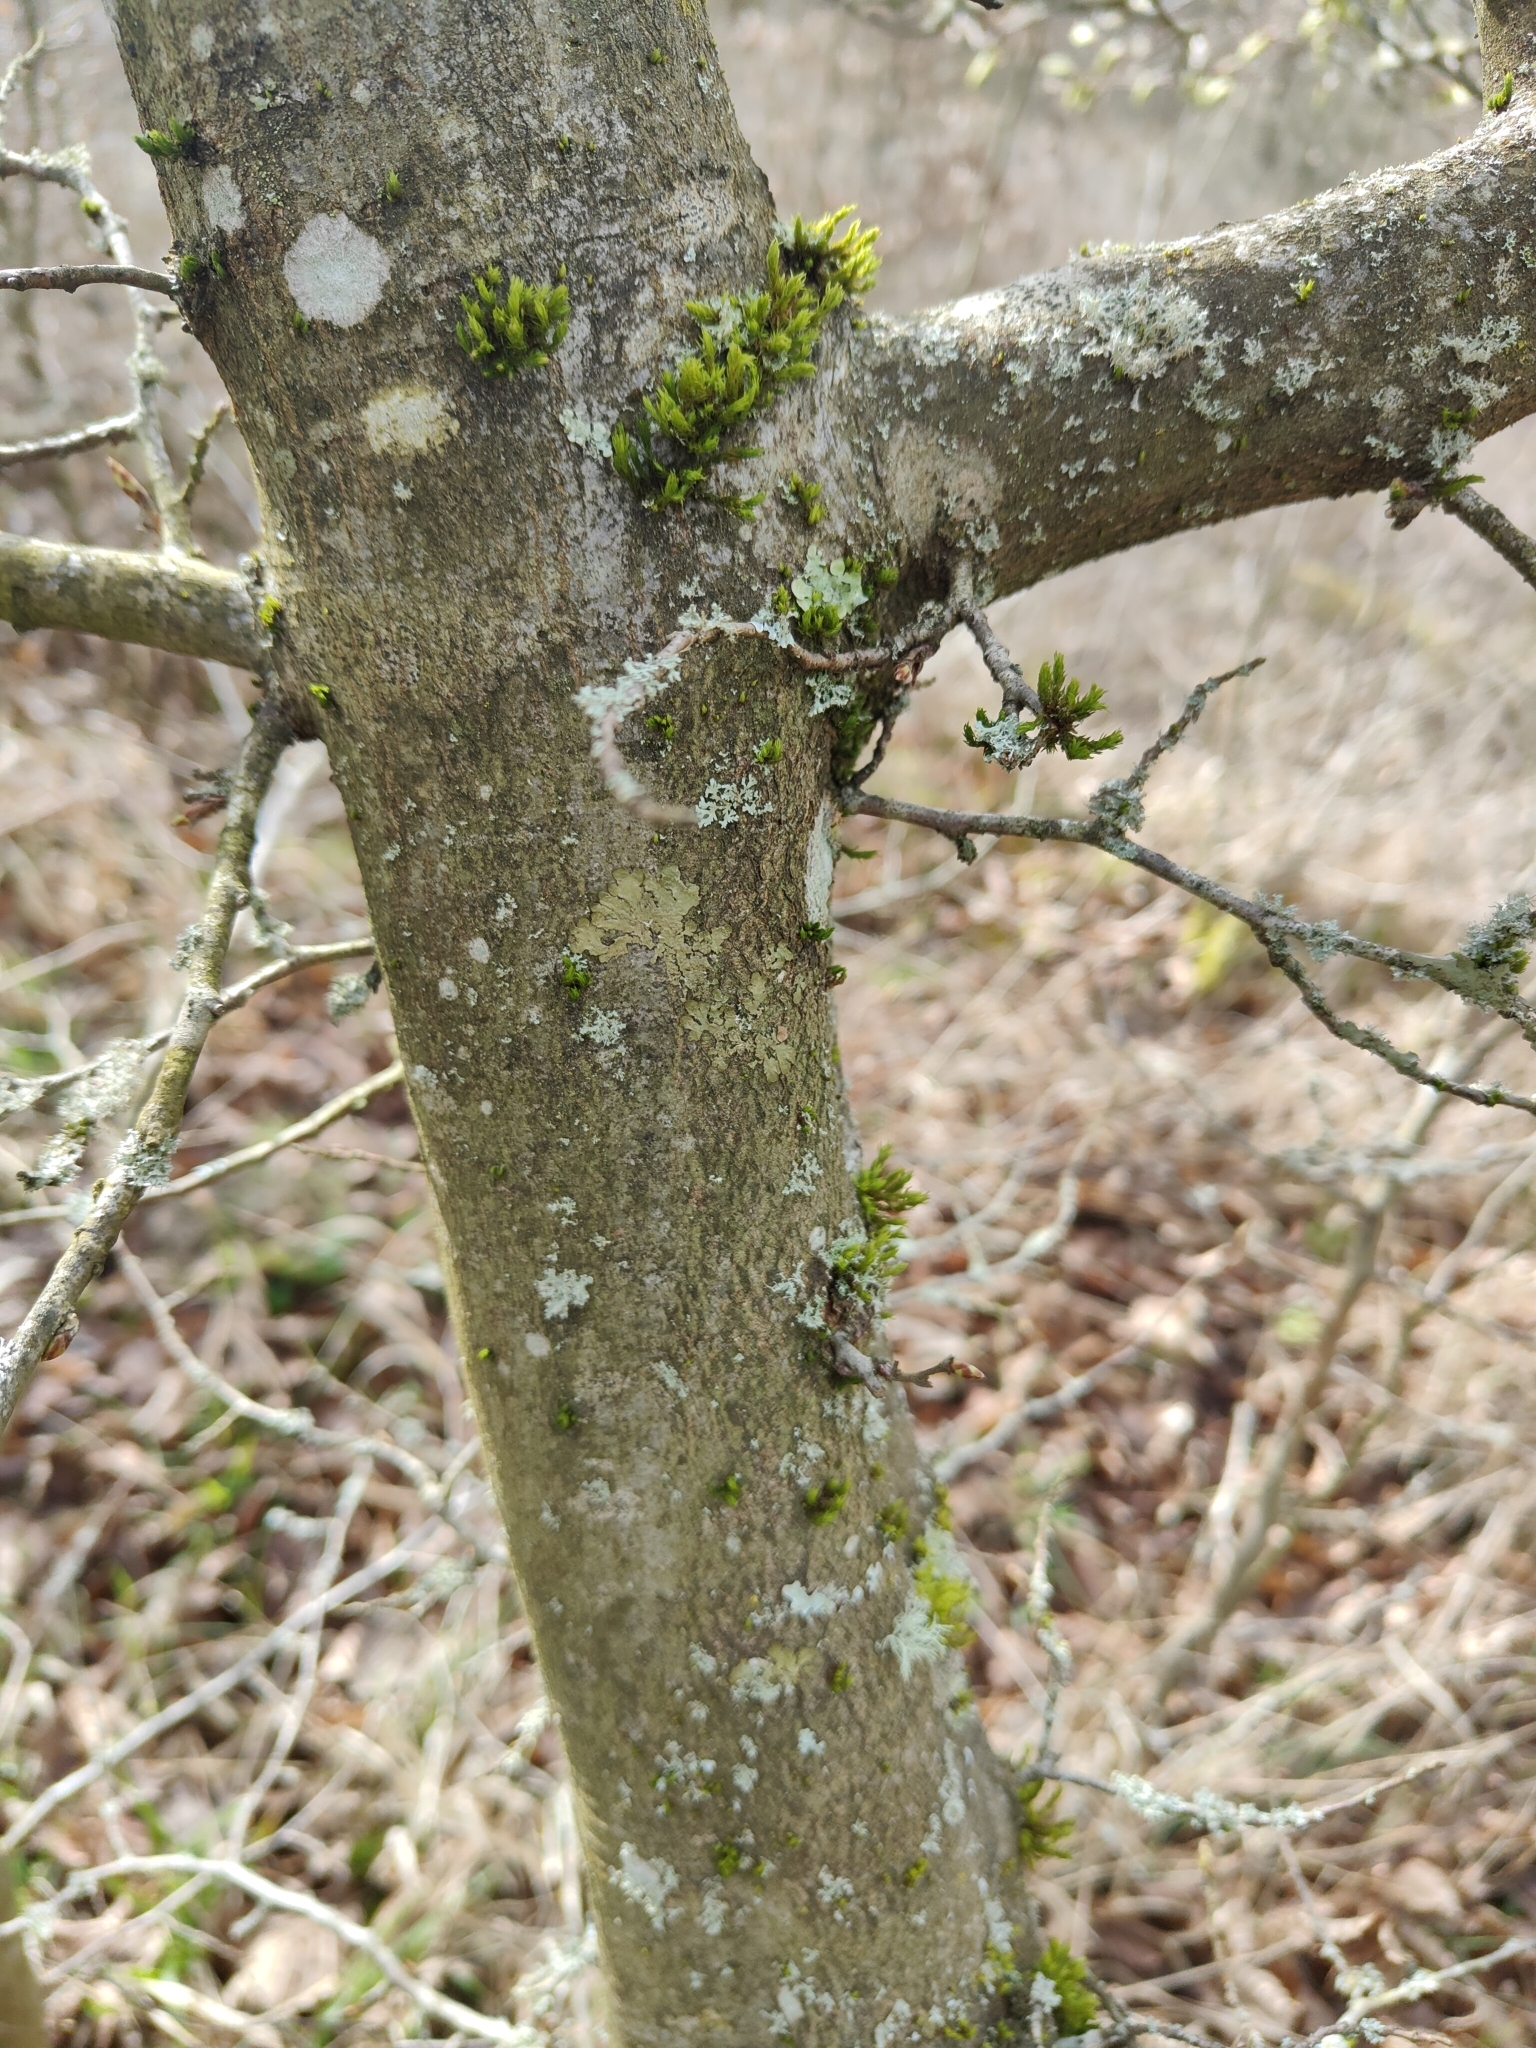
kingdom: Plantae
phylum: Tracheophyta
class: Magnoliopsida
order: Fagales
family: Betulaceae
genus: Carpinus
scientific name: Carpinus betulus
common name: Hornbeam
